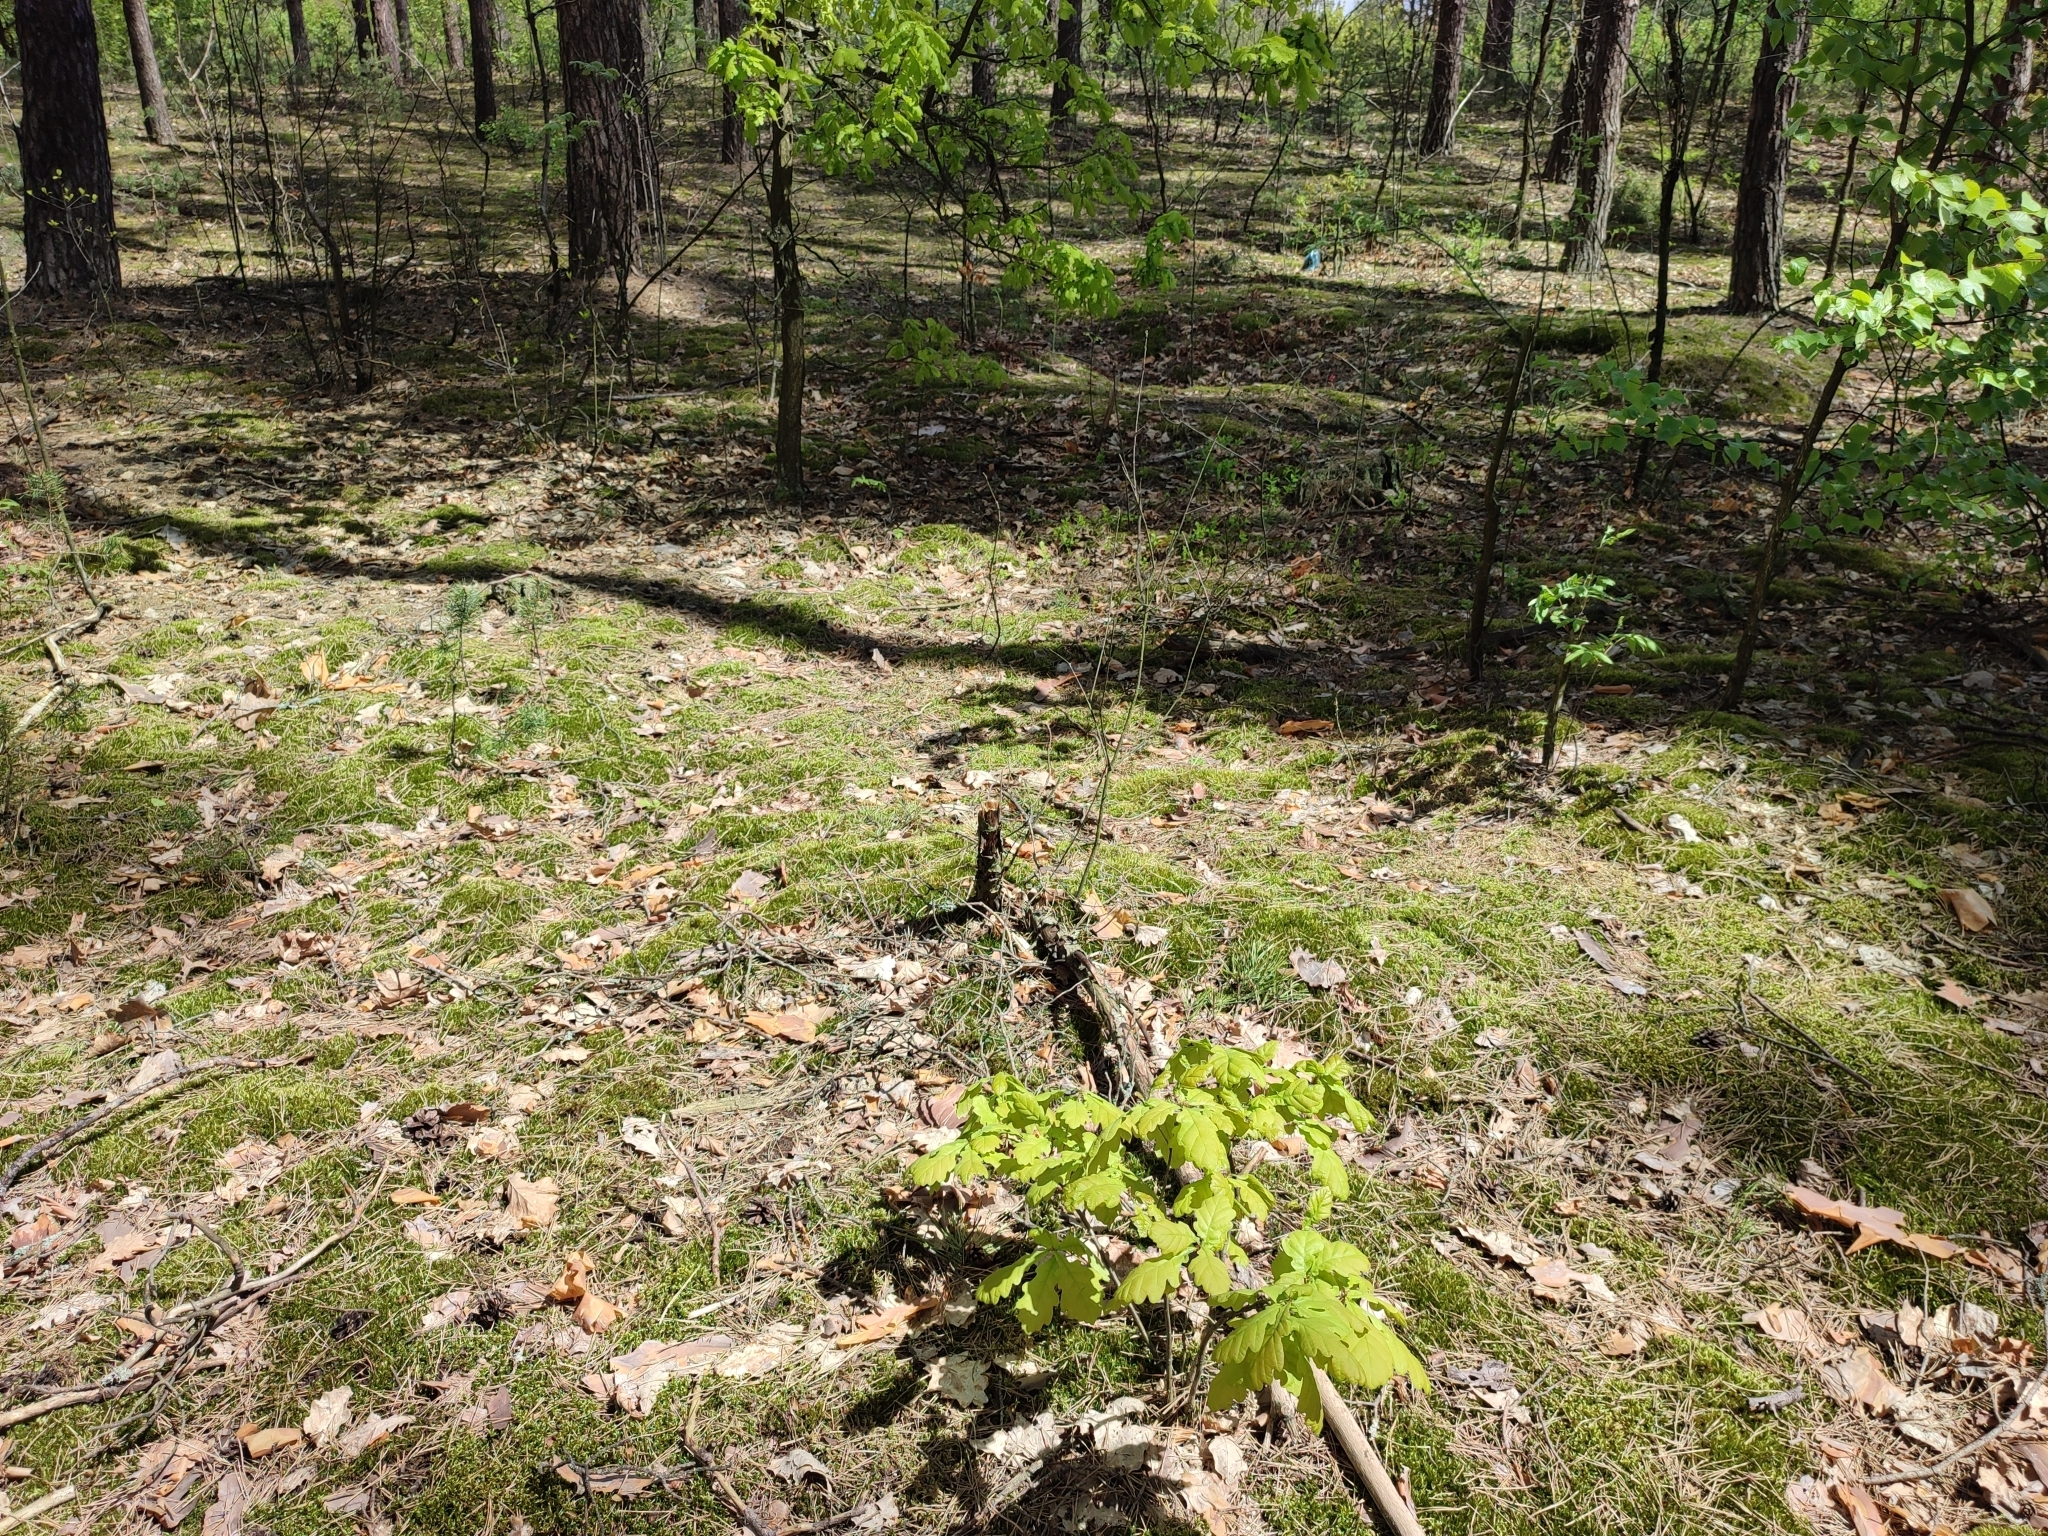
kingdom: Plantae
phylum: Tracheophyta
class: Magnoliopsida
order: Fagales
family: Fagaceae
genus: Quercus
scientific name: Quercus robur
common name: Pedunculate oak
